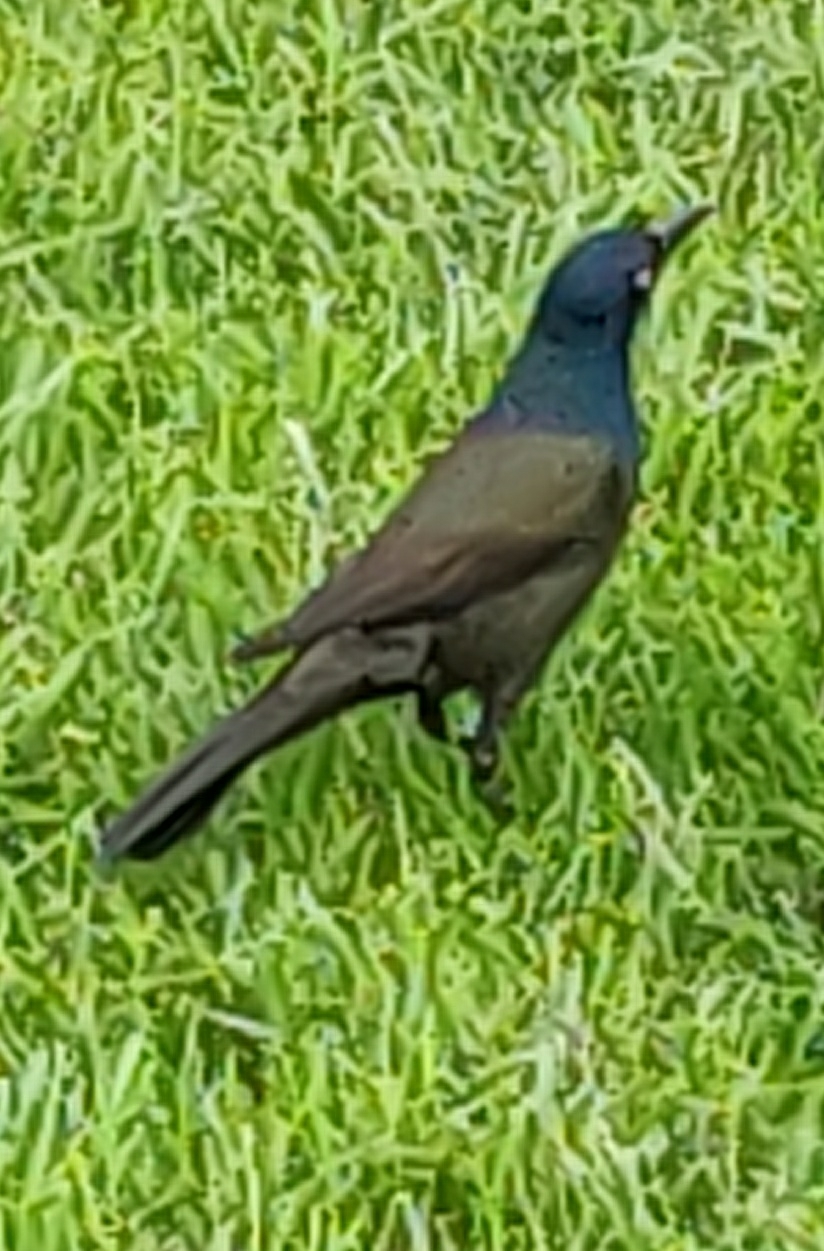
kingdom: Animalia
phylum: Chordata
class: Aves
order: Passeriformes
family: Icteridae
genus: Quiscalus
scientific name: Quiscalus quiscula
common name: Common grackle
